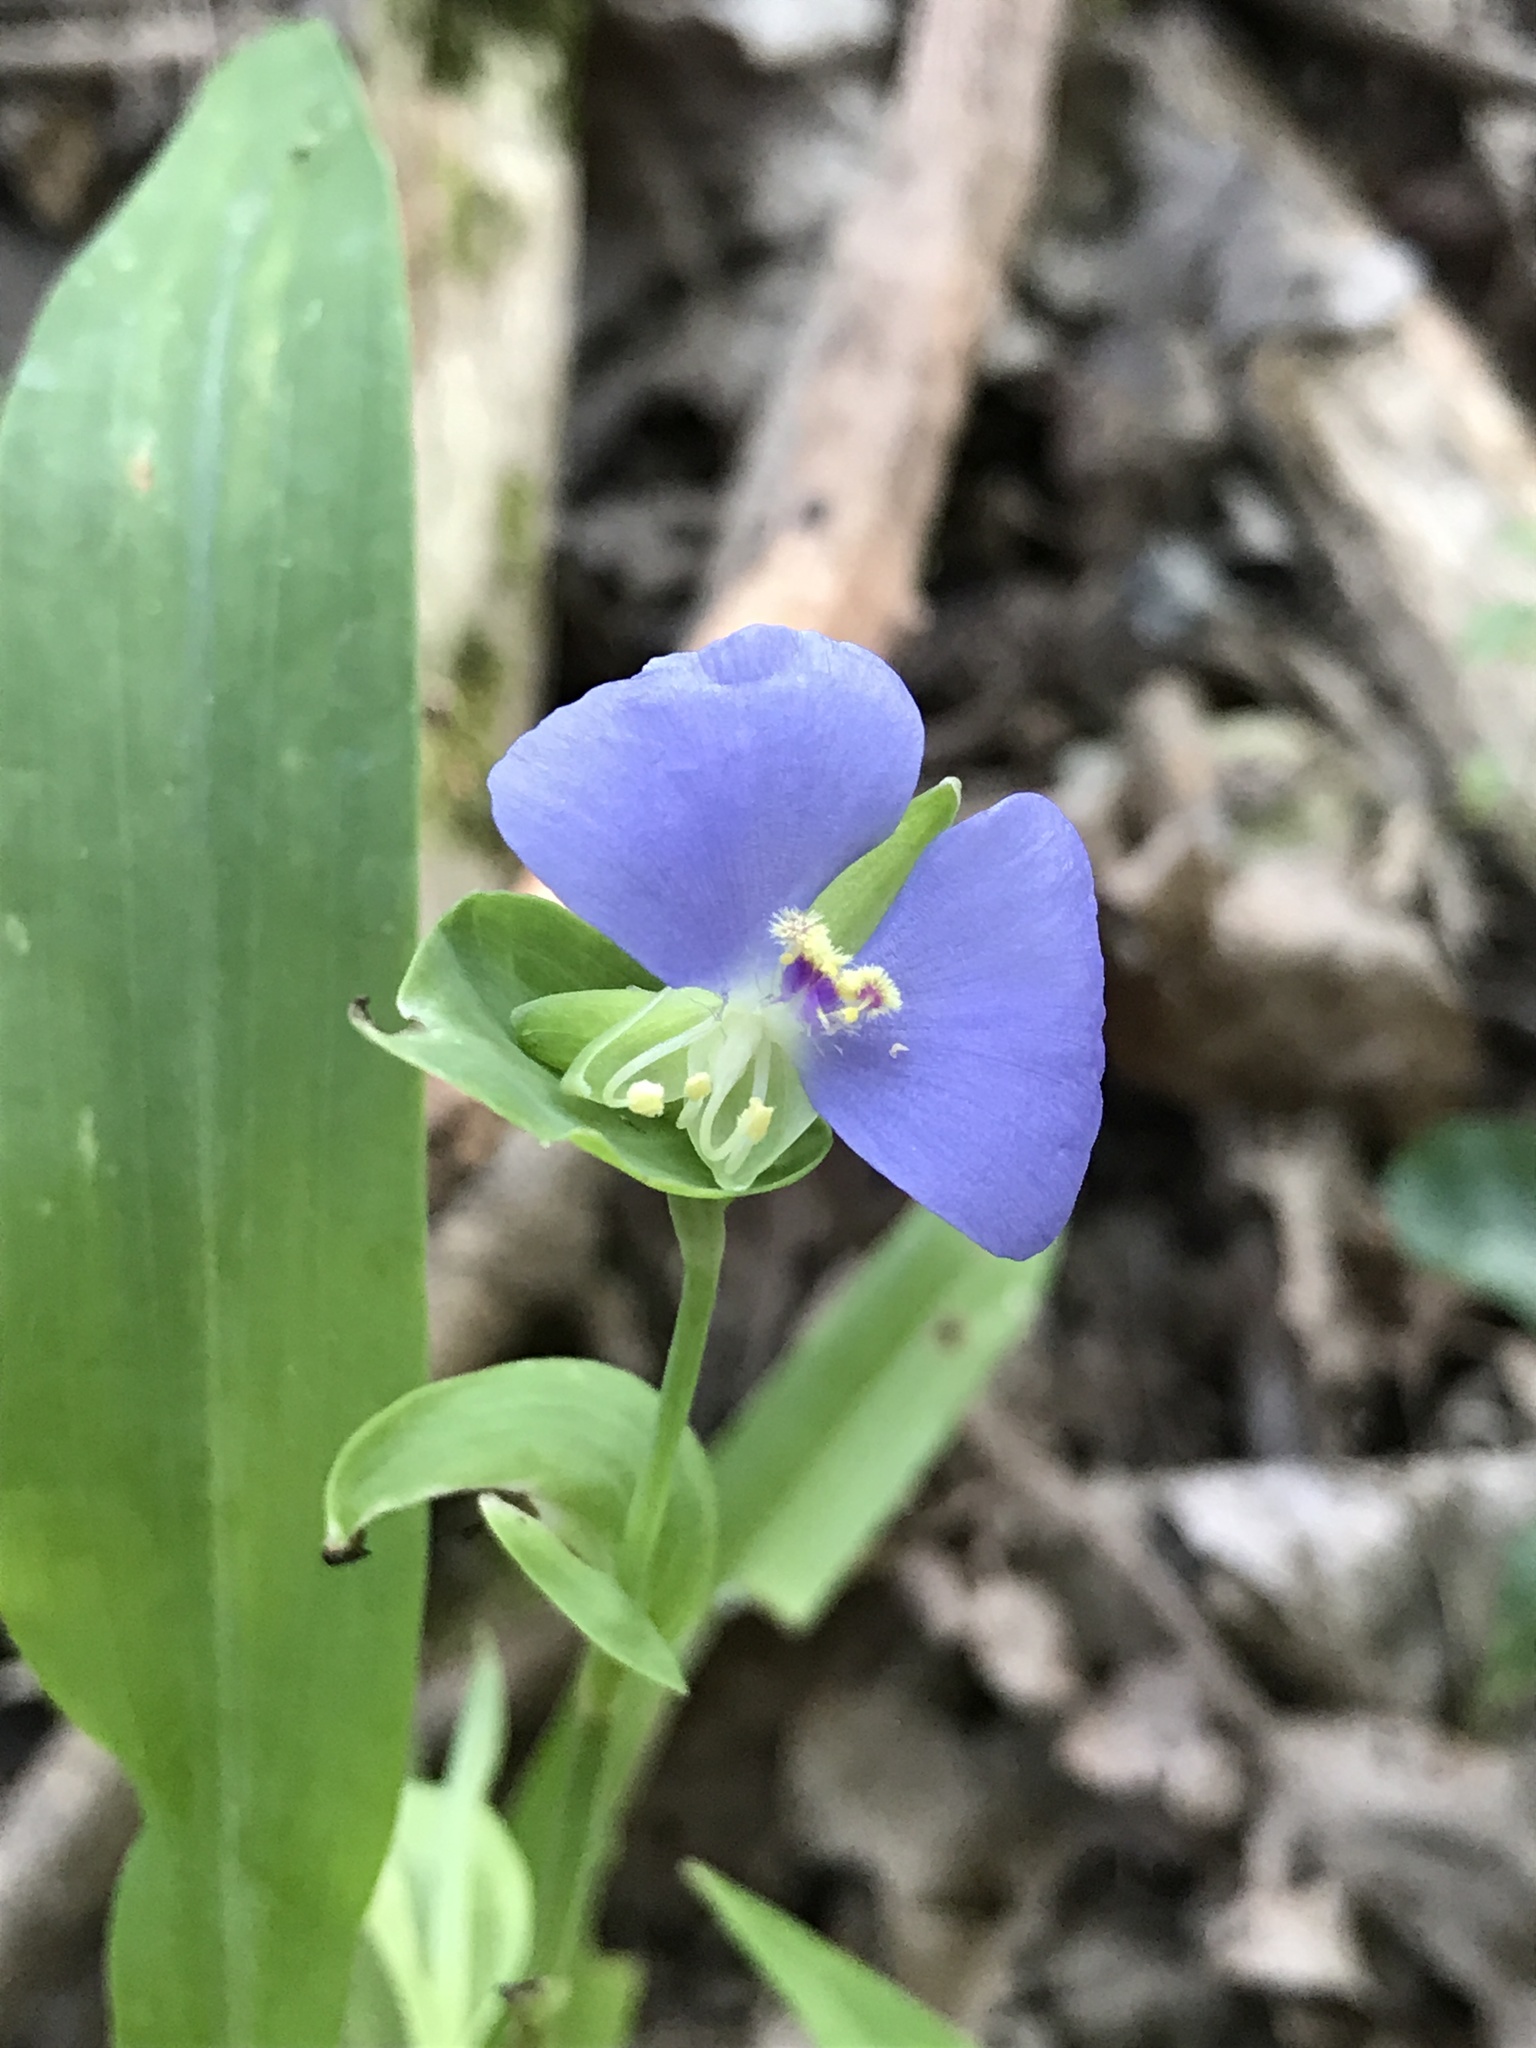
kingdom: Plantae
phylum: Tracheophyta
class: Liliopsida
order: Commelinales
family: Commelinaceae
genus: Tinantia
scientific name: Tinantia anomala
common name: False dayflower
